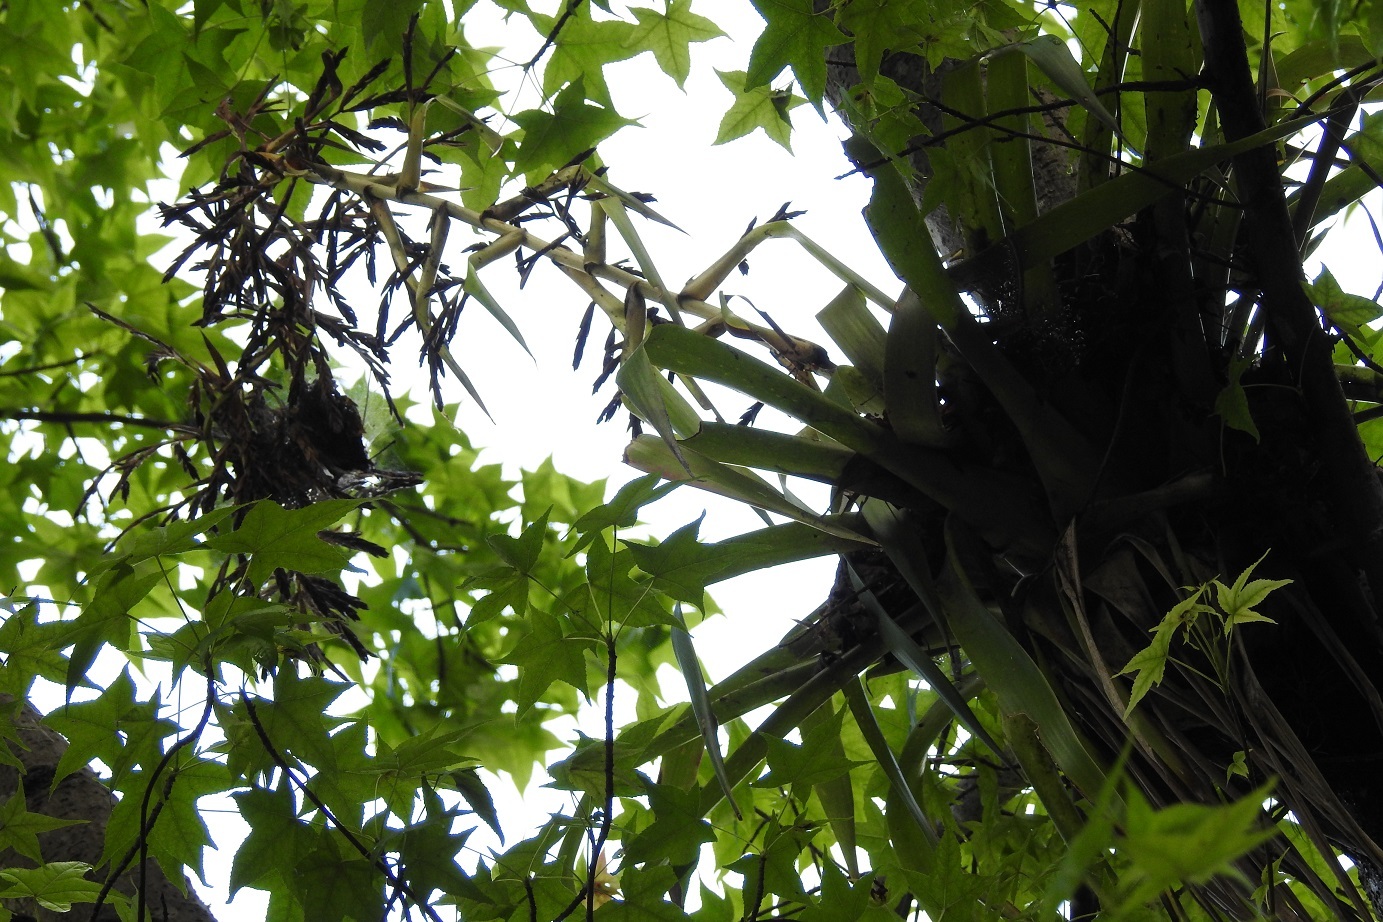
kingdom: Plantae
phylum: Tracheophyta
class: Liliopsida
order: Poales
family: Bromeliaceae
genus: Tillandsia
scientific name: Tillandsia guatemalensis
